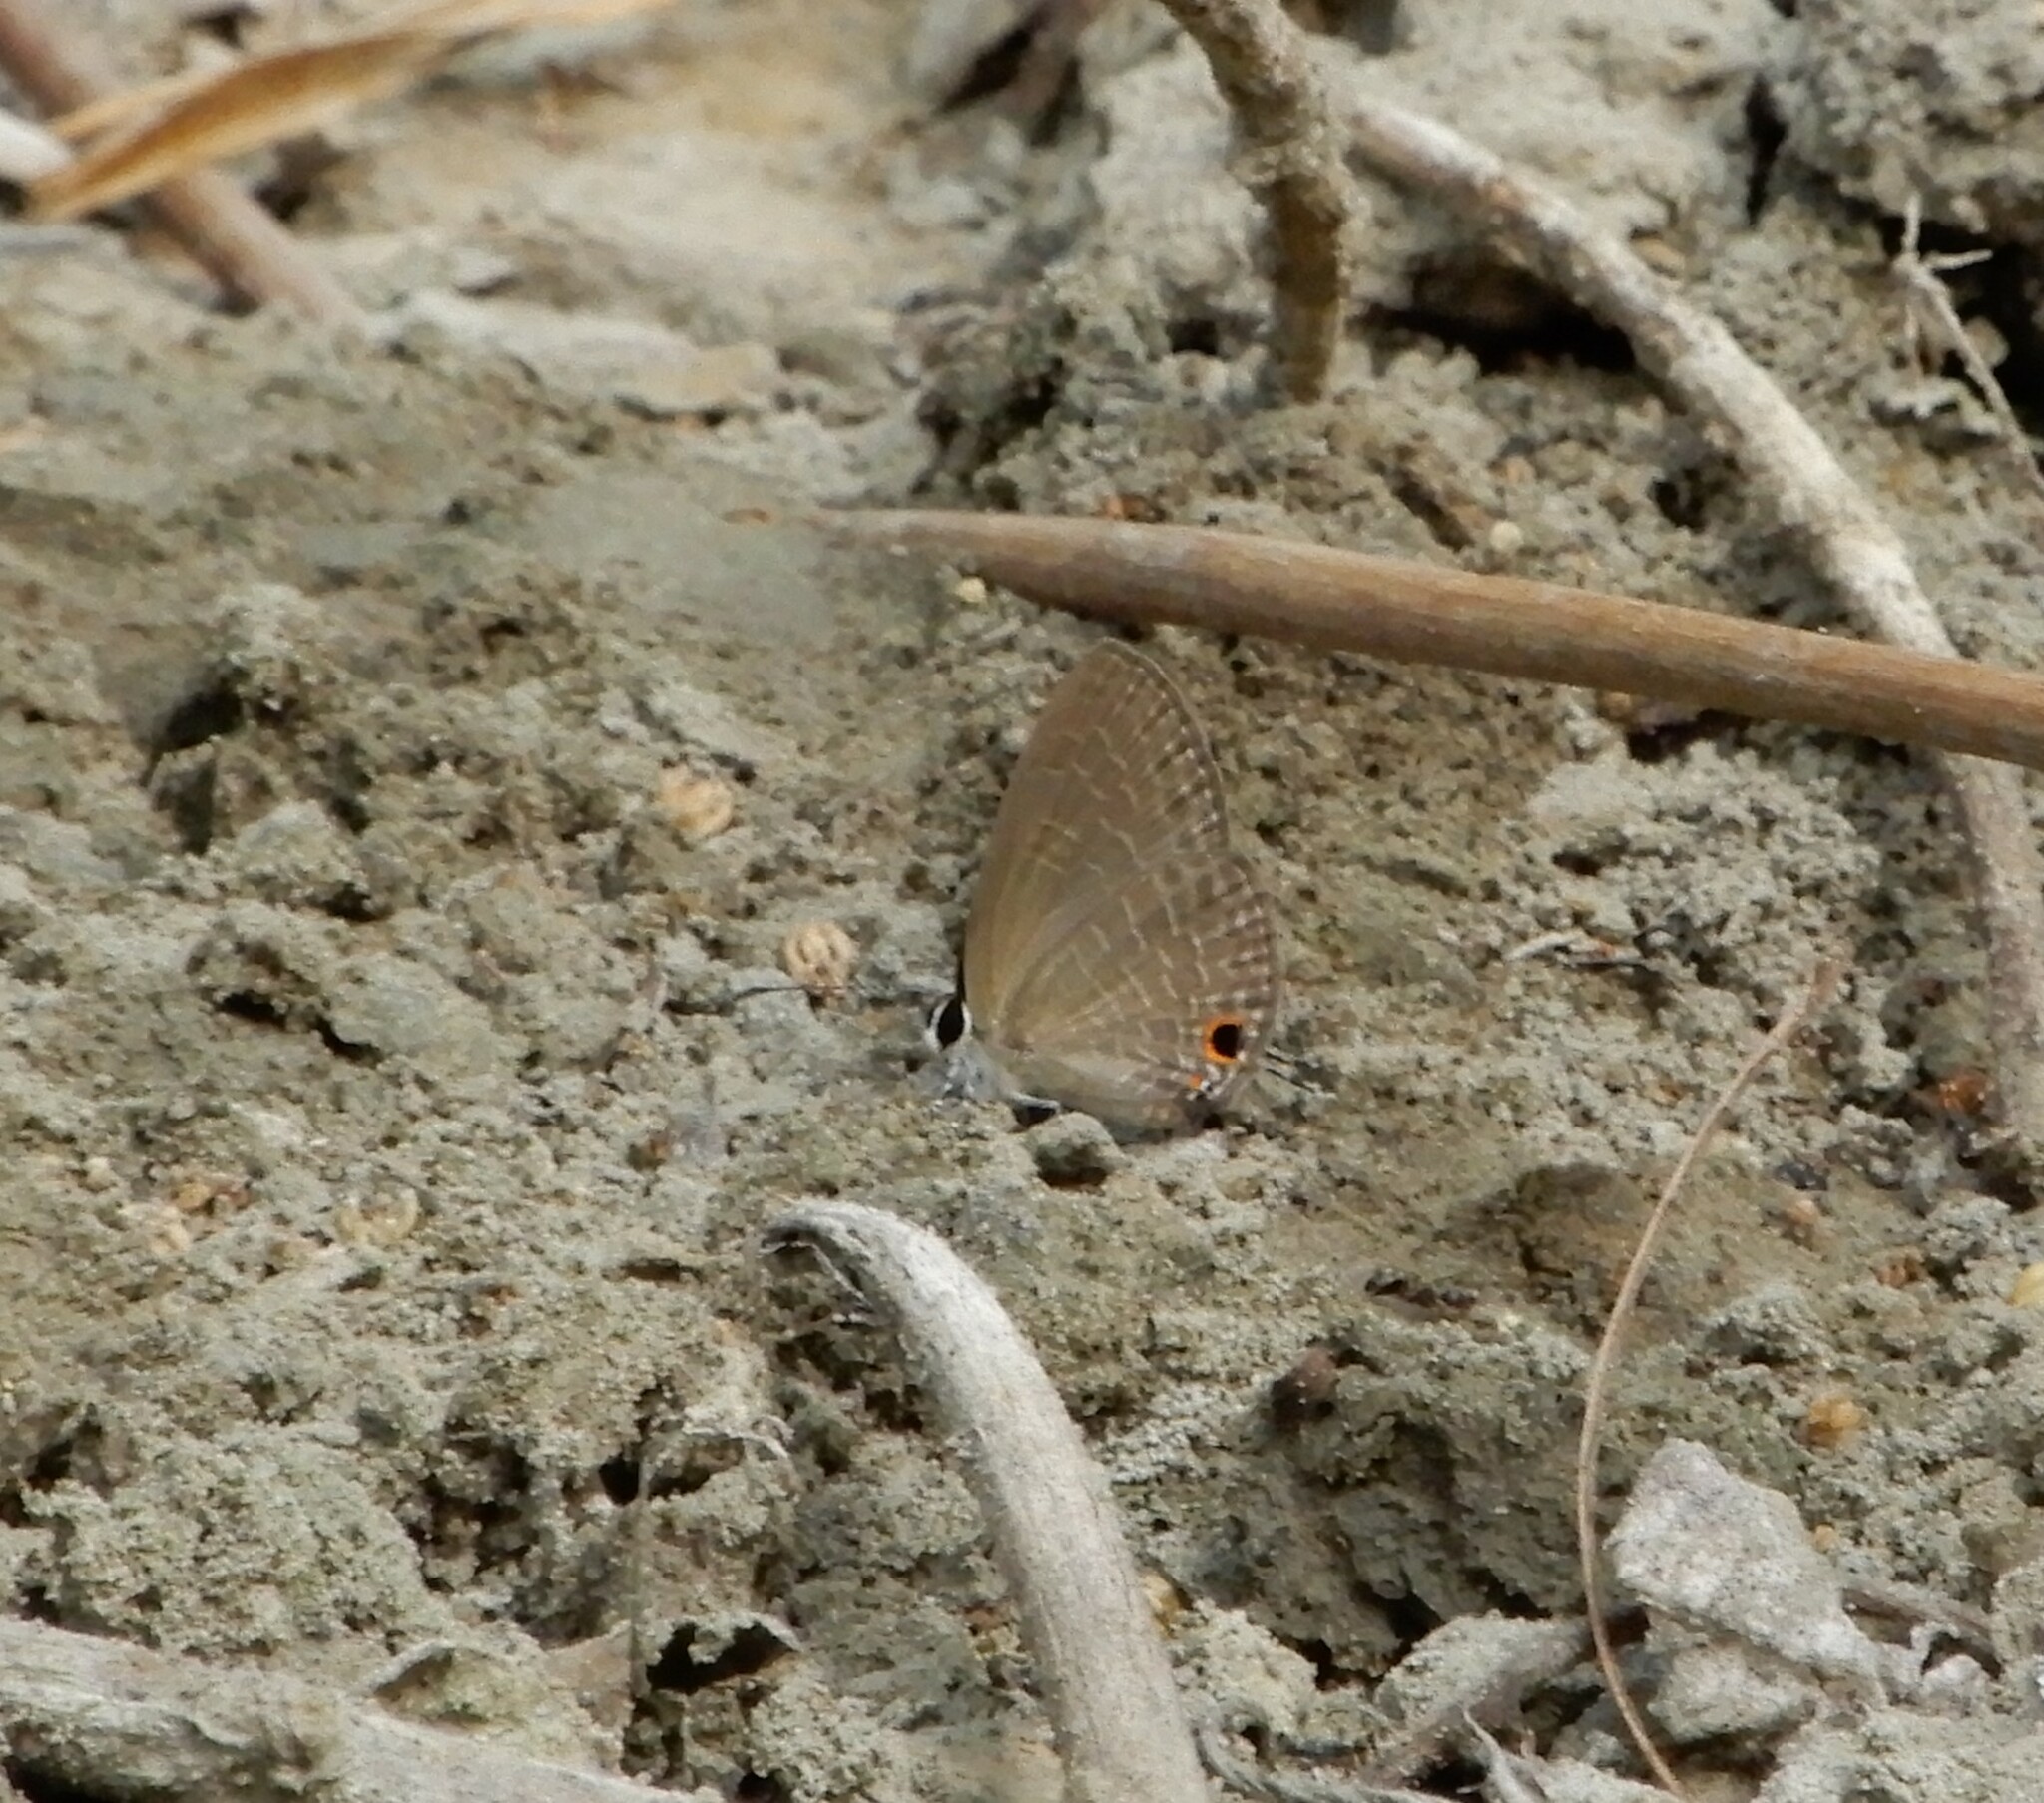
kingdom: Animalia
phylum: Arthropoda
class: Insecta
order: Lepidoptera
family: Lycaenidae
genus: Jamides
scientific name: Jamides bochus
